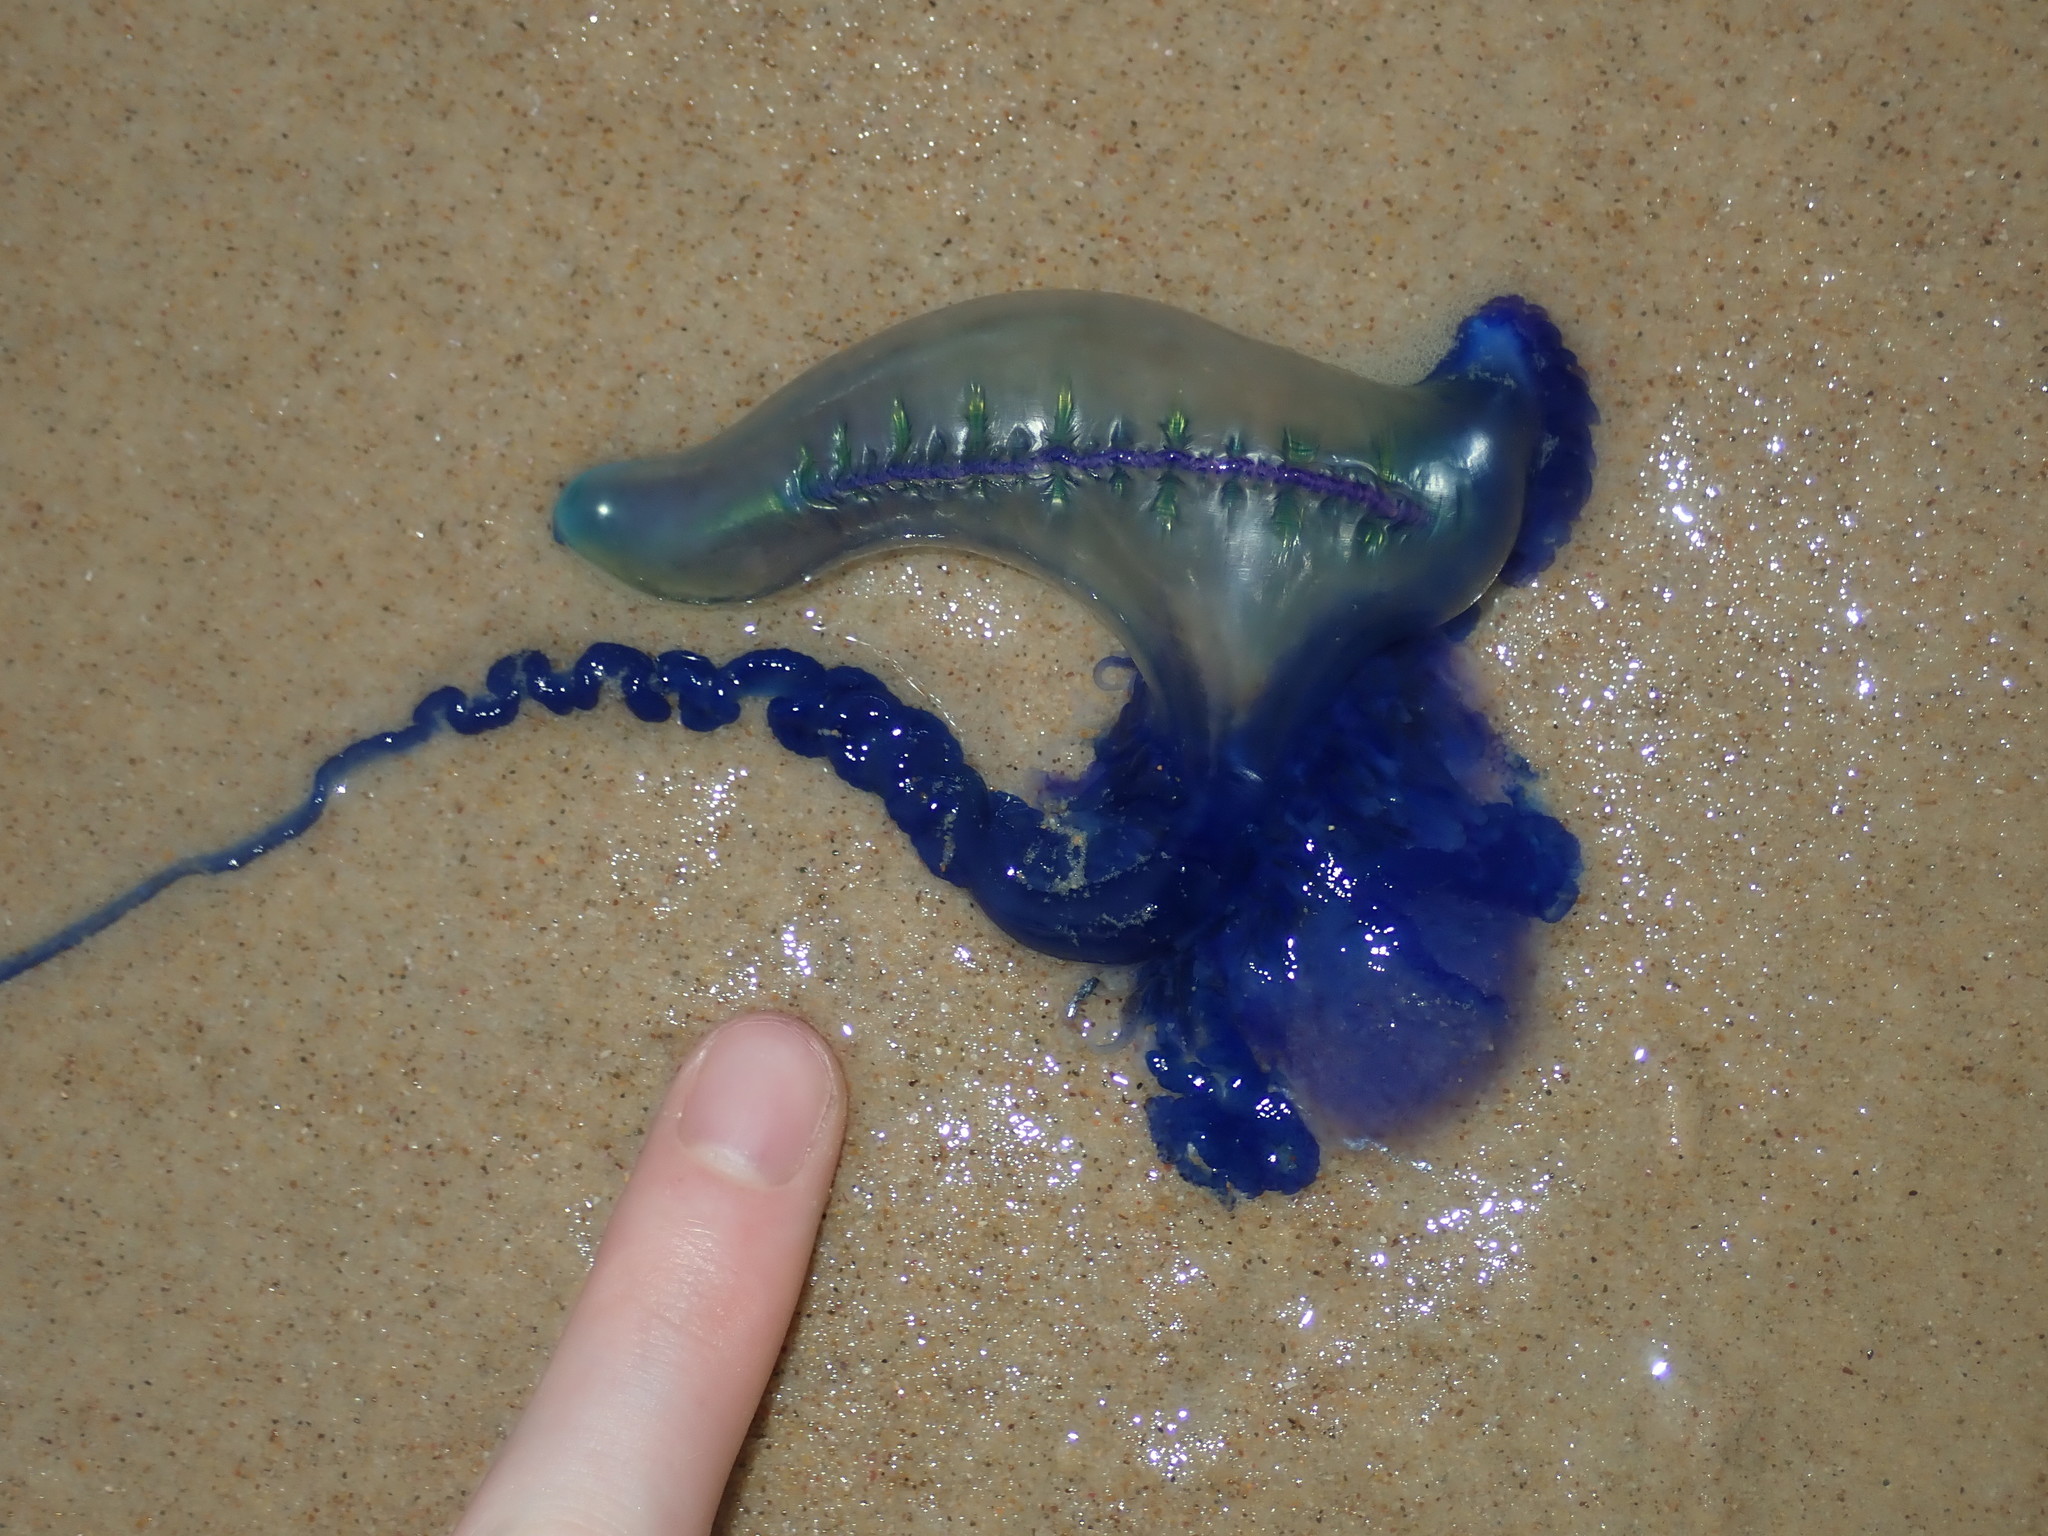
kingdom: Animalia
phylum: Cnidaria
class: Hydrozoa
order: Siphonophorae
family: Physaliidae
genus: Physalia
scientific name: Physalia physalis
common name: Portuguese man-of-war
